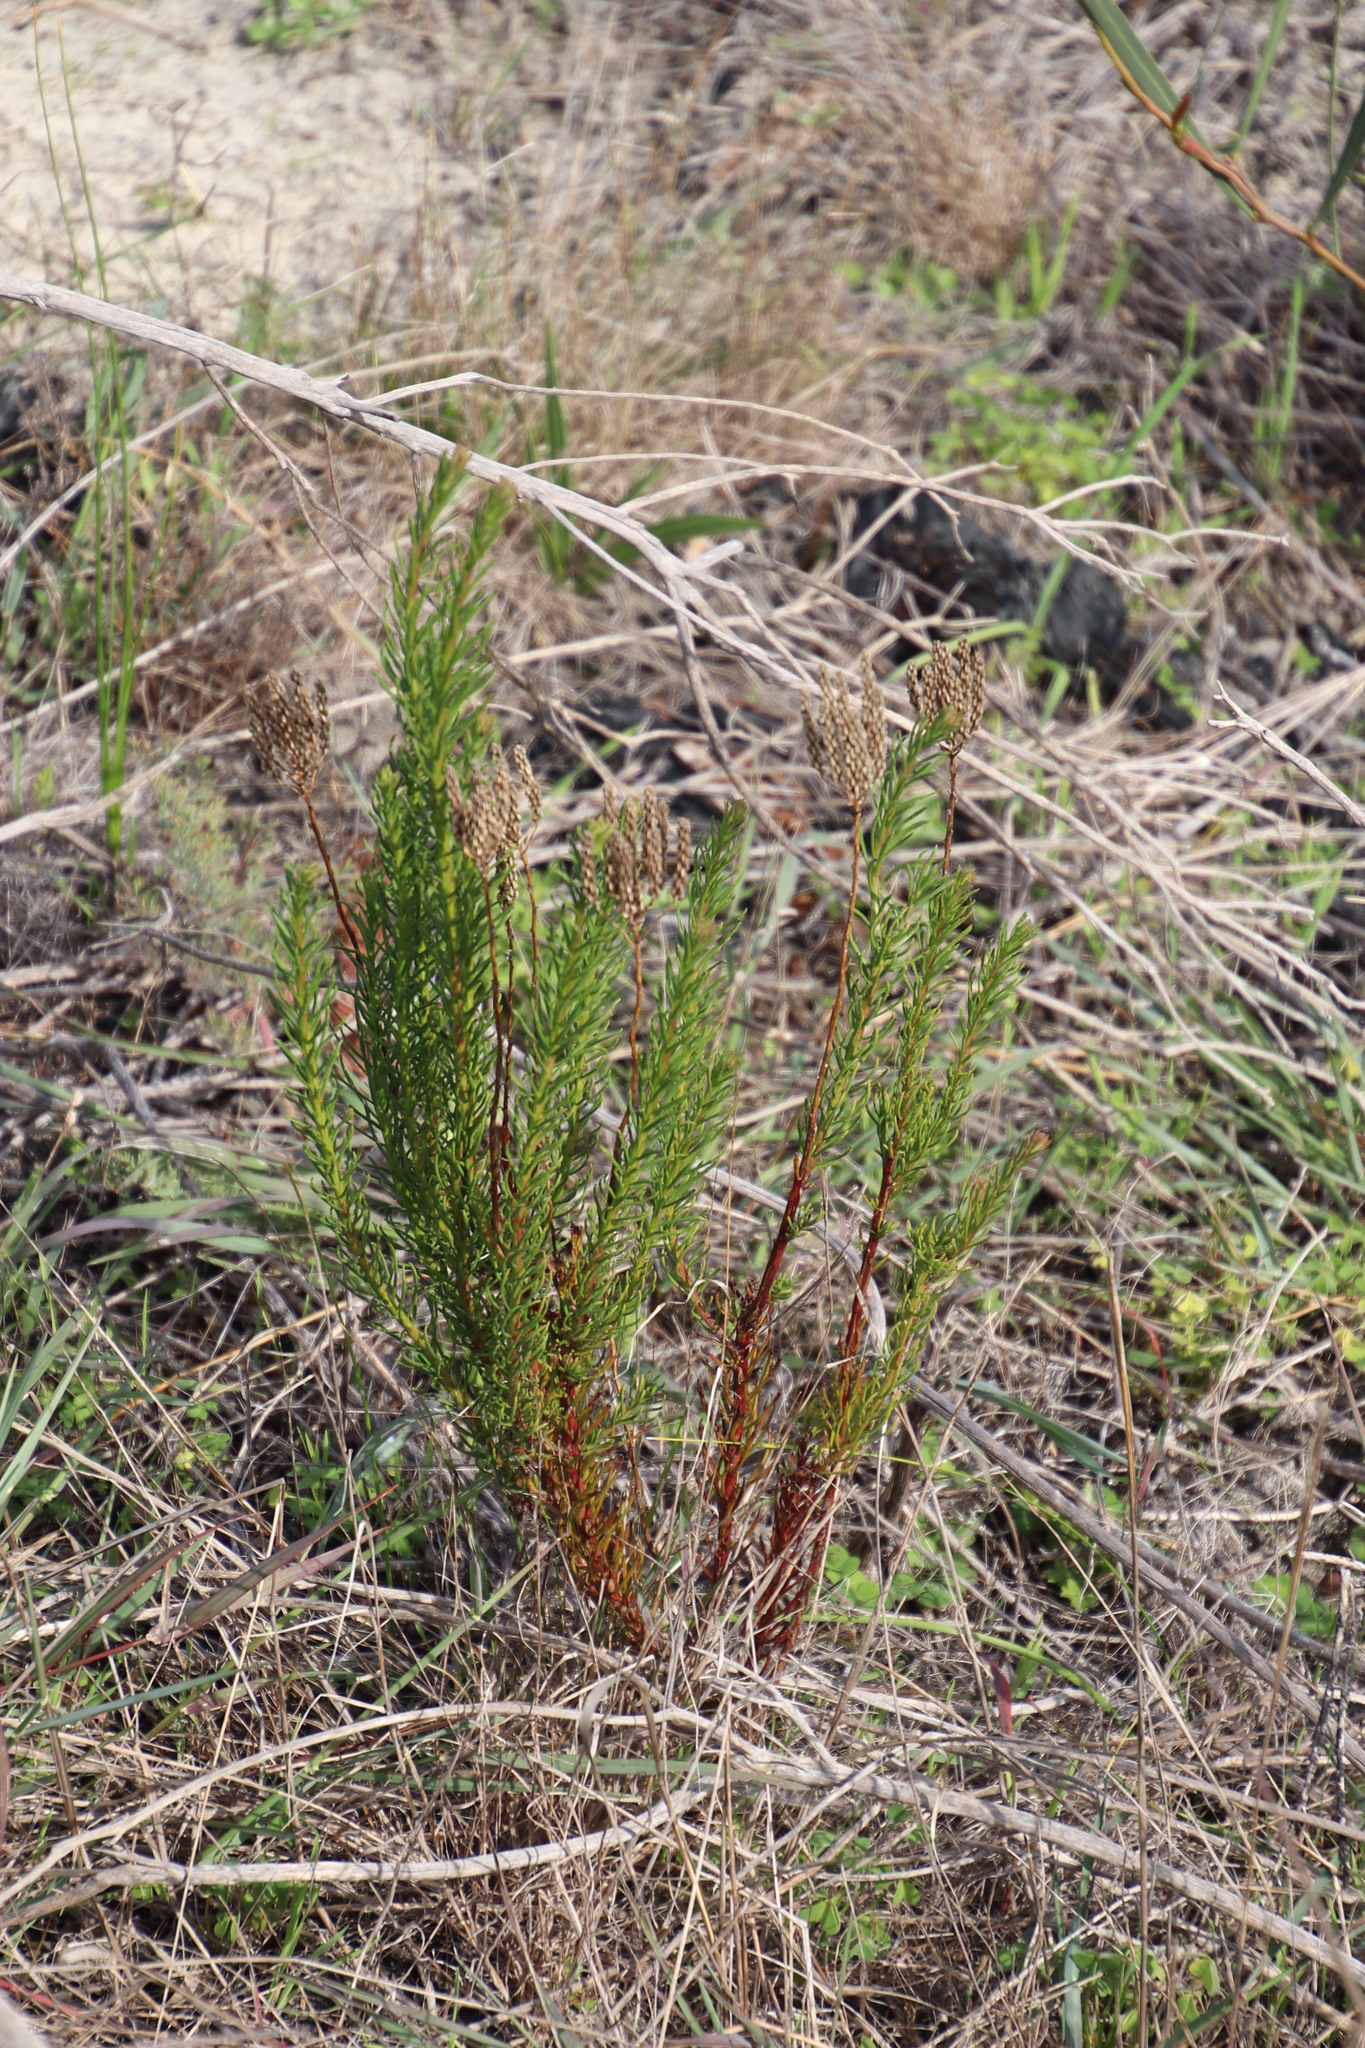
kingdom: Plantae
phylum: Tracheophyta
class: Magnoliopsida
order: Lamiales
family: Scrophulariaceae
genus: Pseudoselago
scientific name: Pseudoselago spuria
